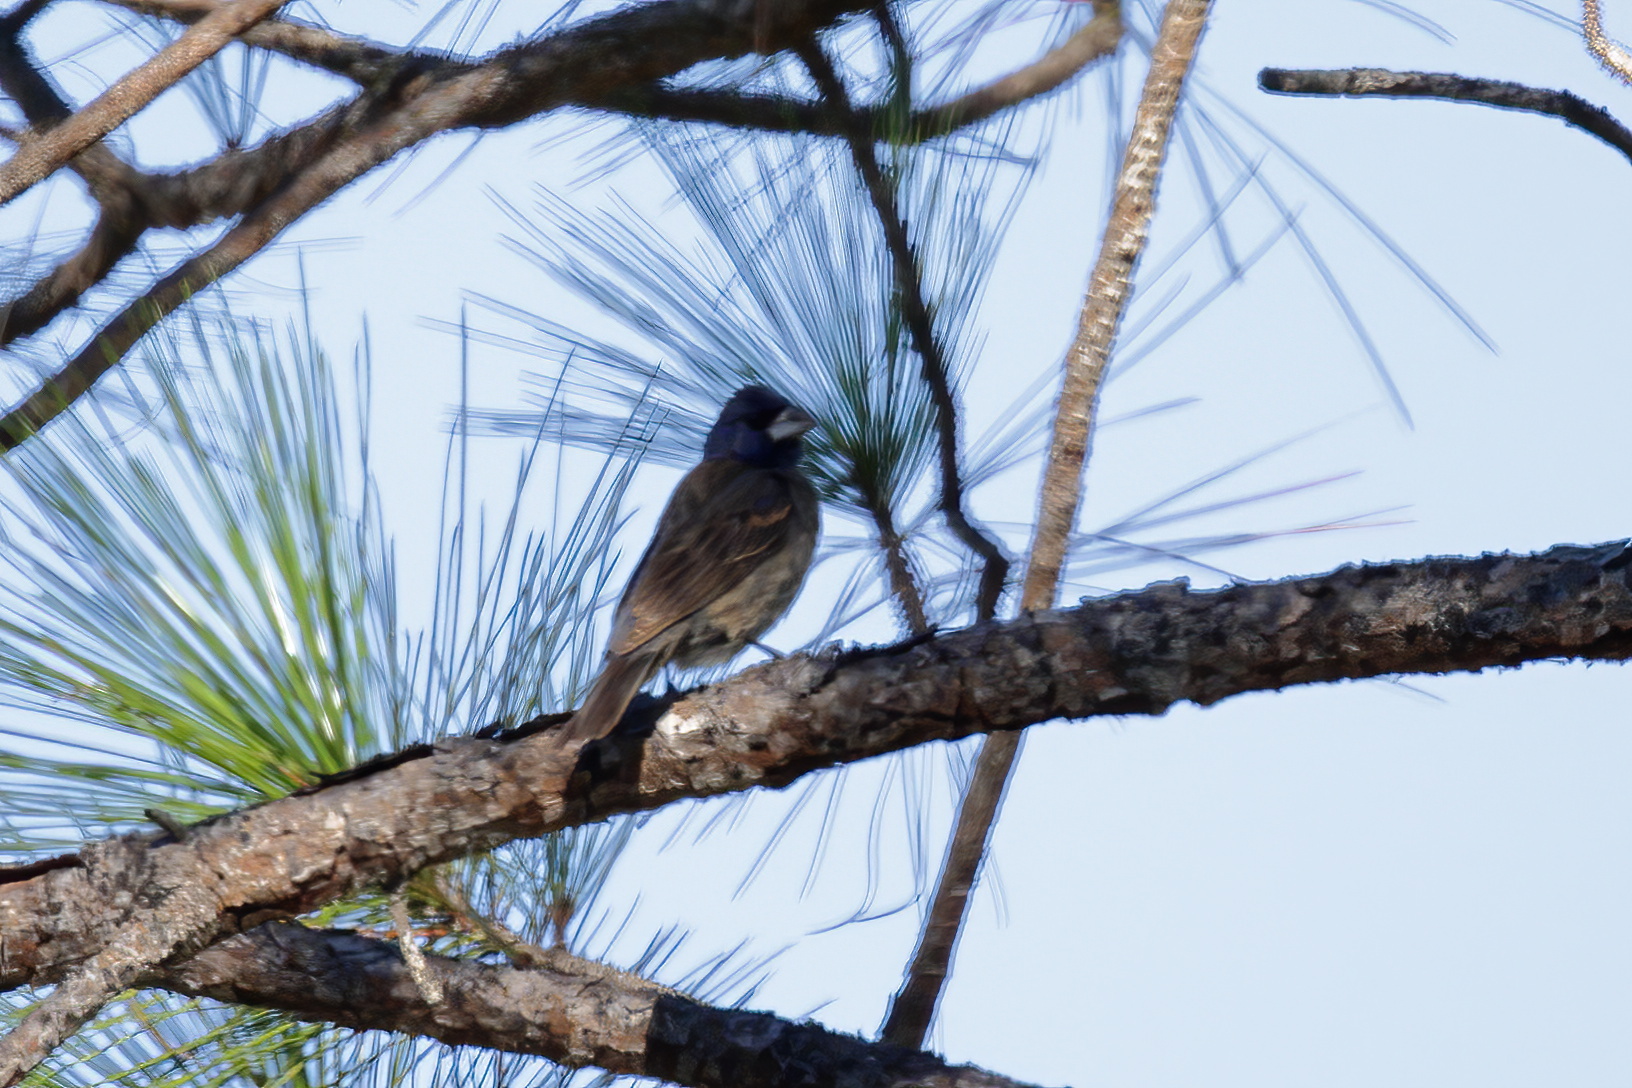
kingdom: Animalia
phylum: Chordata
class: Aves
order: Passeriformes
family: Cardinalidae
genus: Passerina
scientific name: Passerina caerulea
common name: Blue grosbeak
